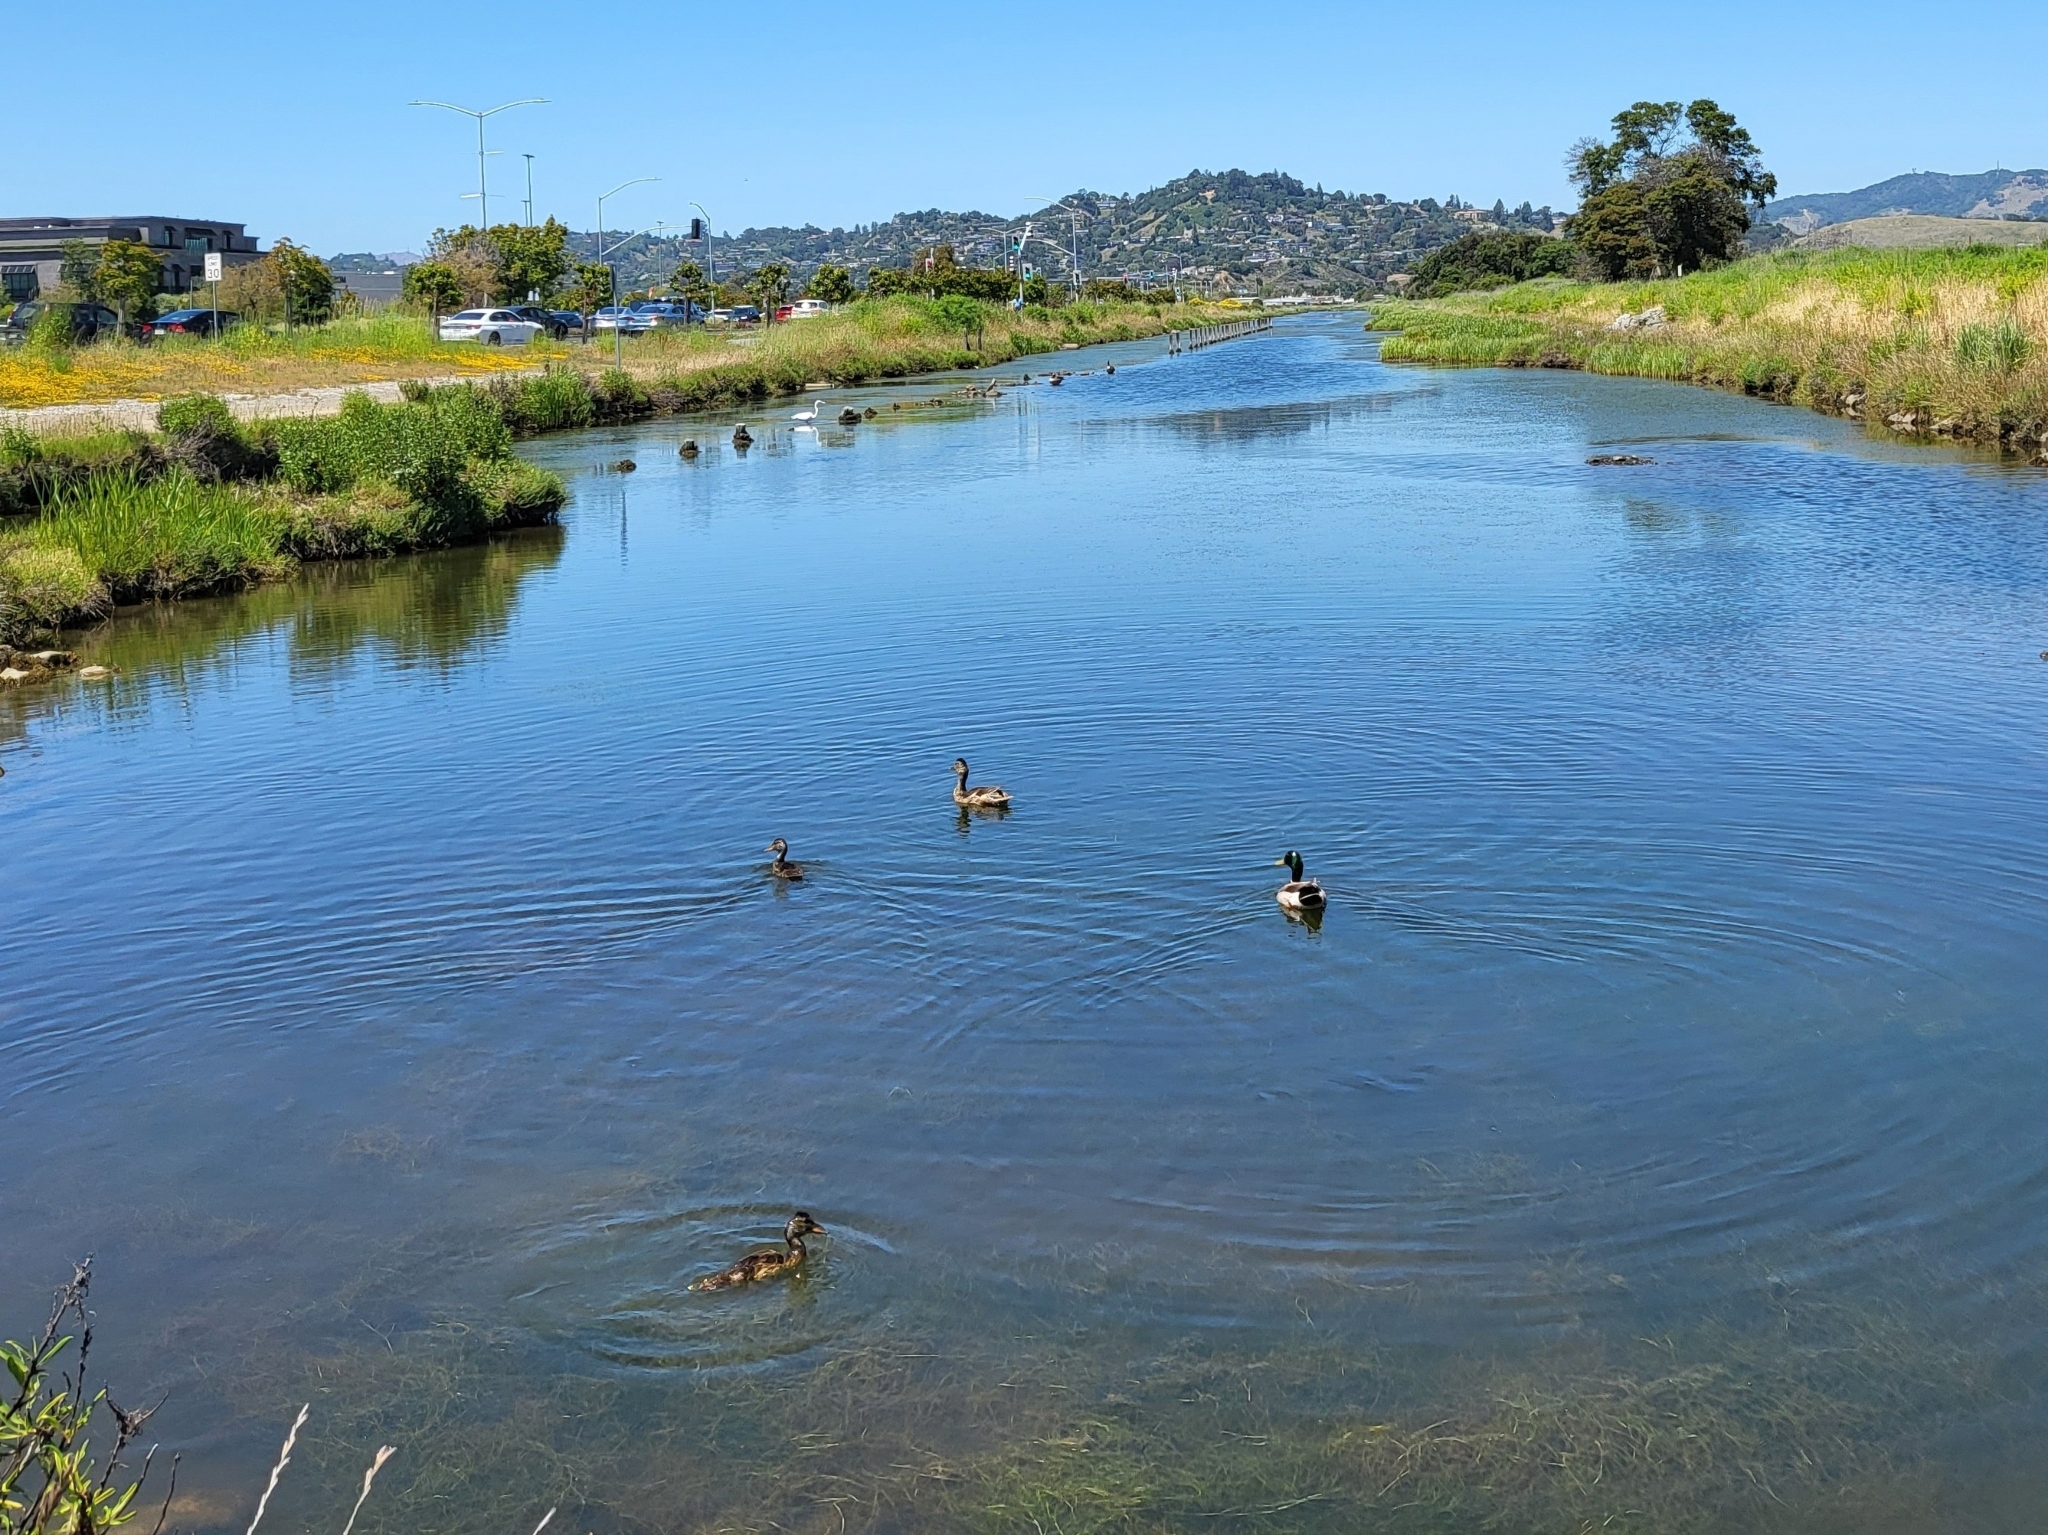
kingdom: Animalia
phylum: Chordata
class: Aves
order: Anseriformes
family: Anatidae
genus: Anas
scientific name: Anas platyrhynchos
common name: Mallard
